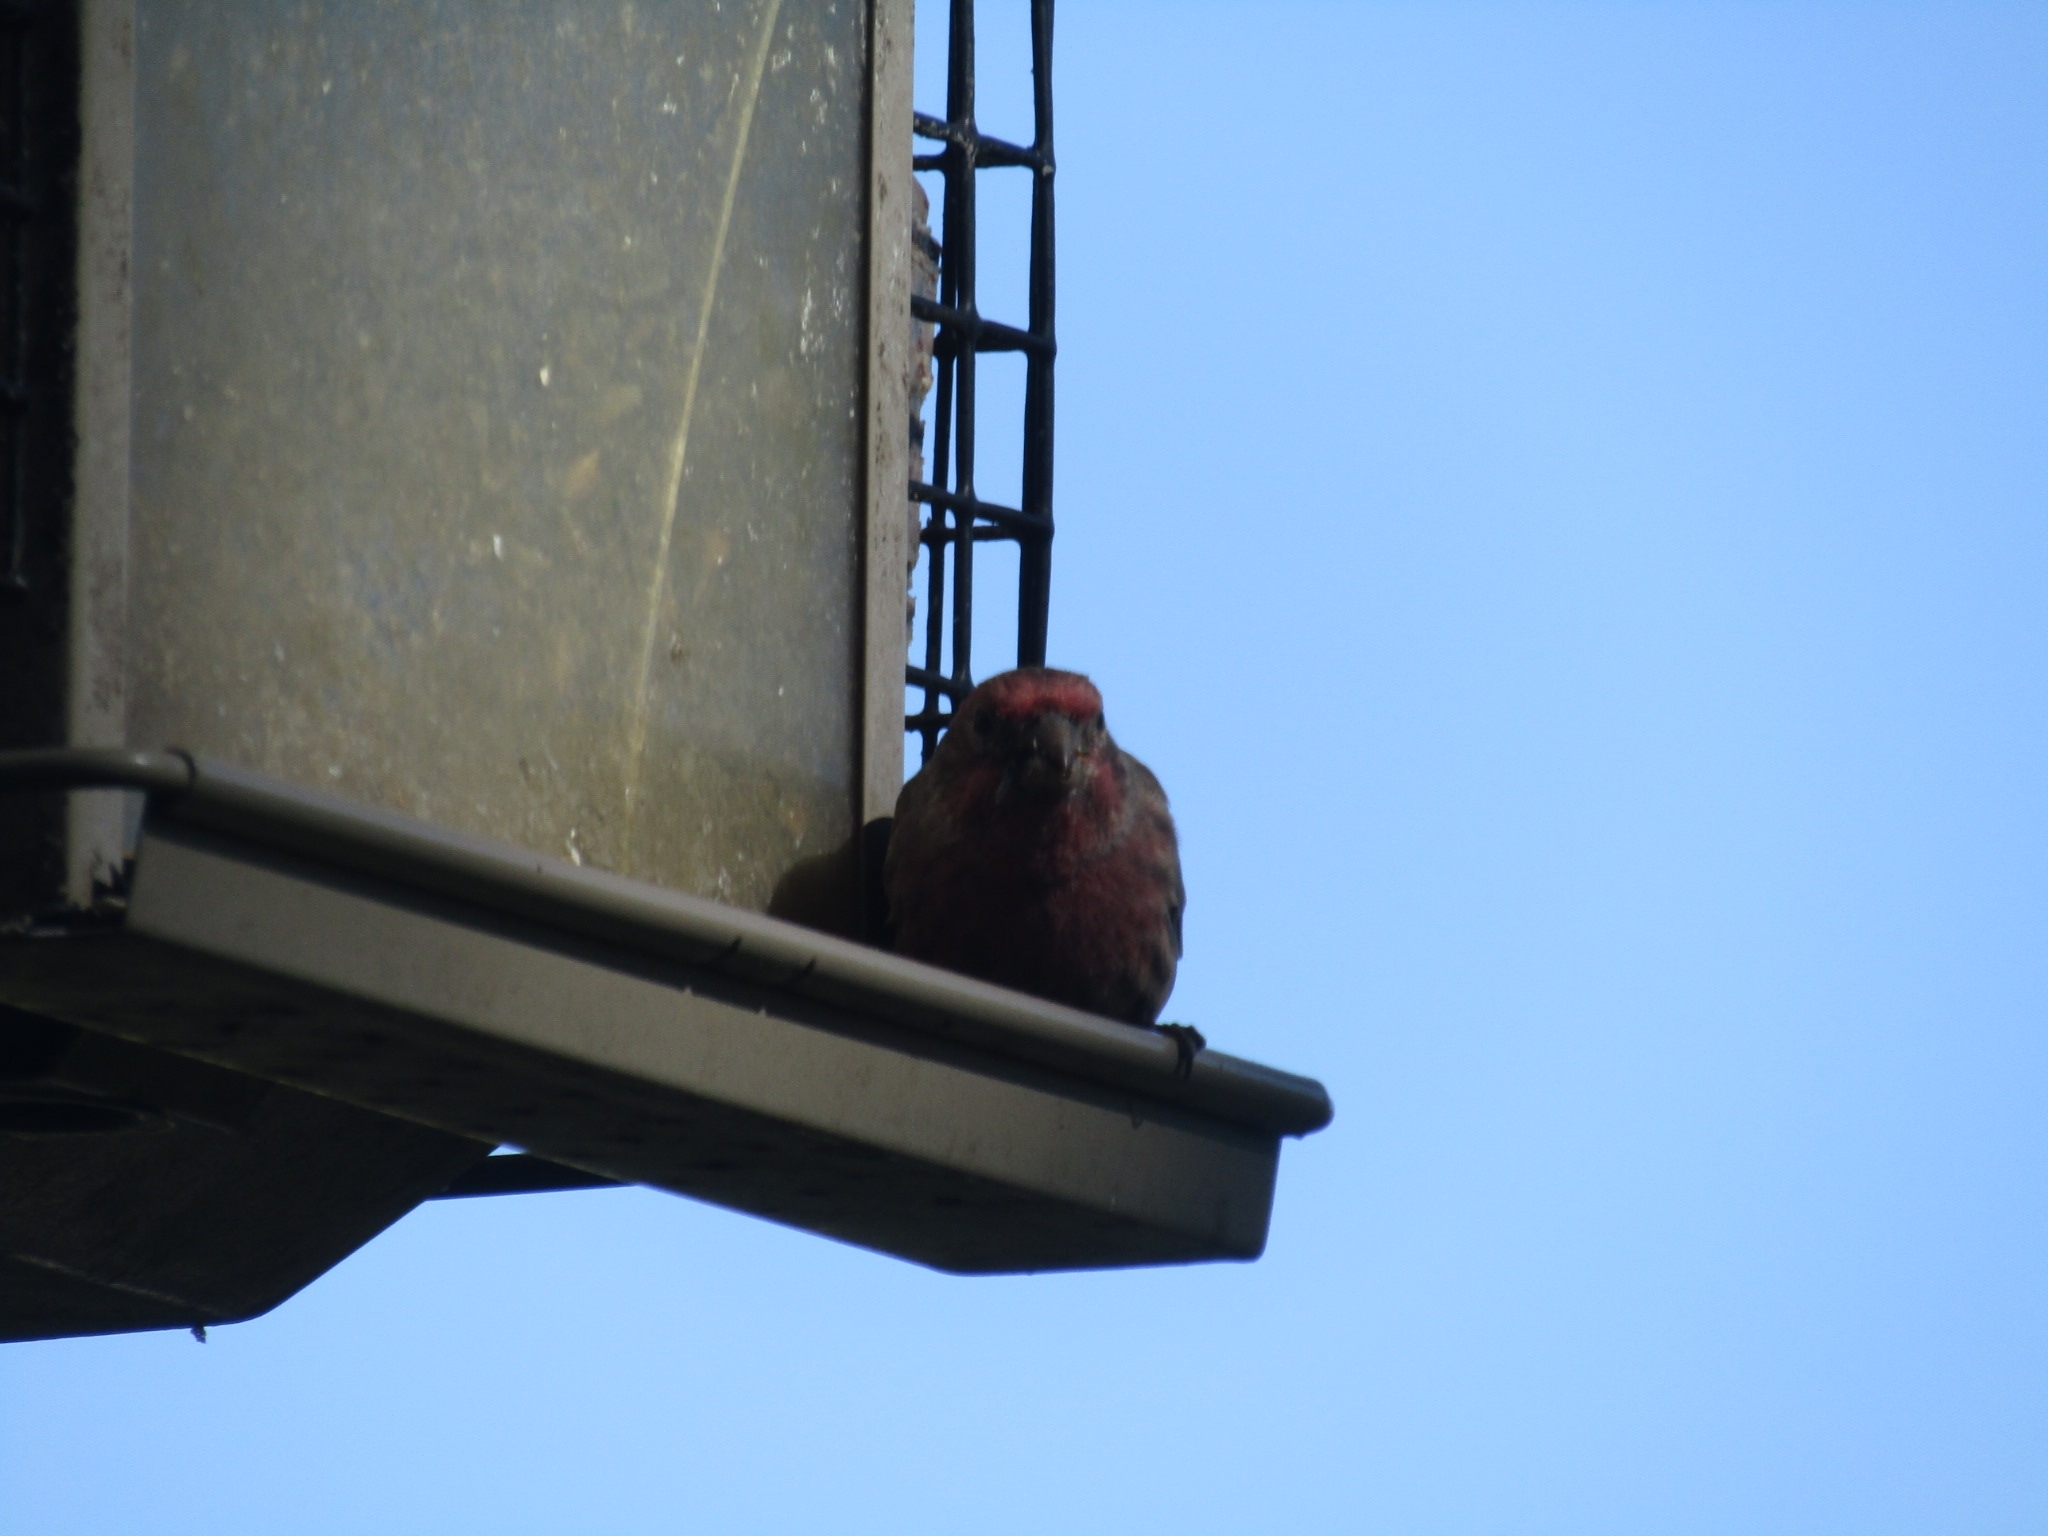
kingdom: Animalia
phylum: Chordata
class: Aves
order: Passeriformes
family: Fringillidae
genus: Haemorhous
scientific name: Haemorhous mexicanus
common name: House finch
